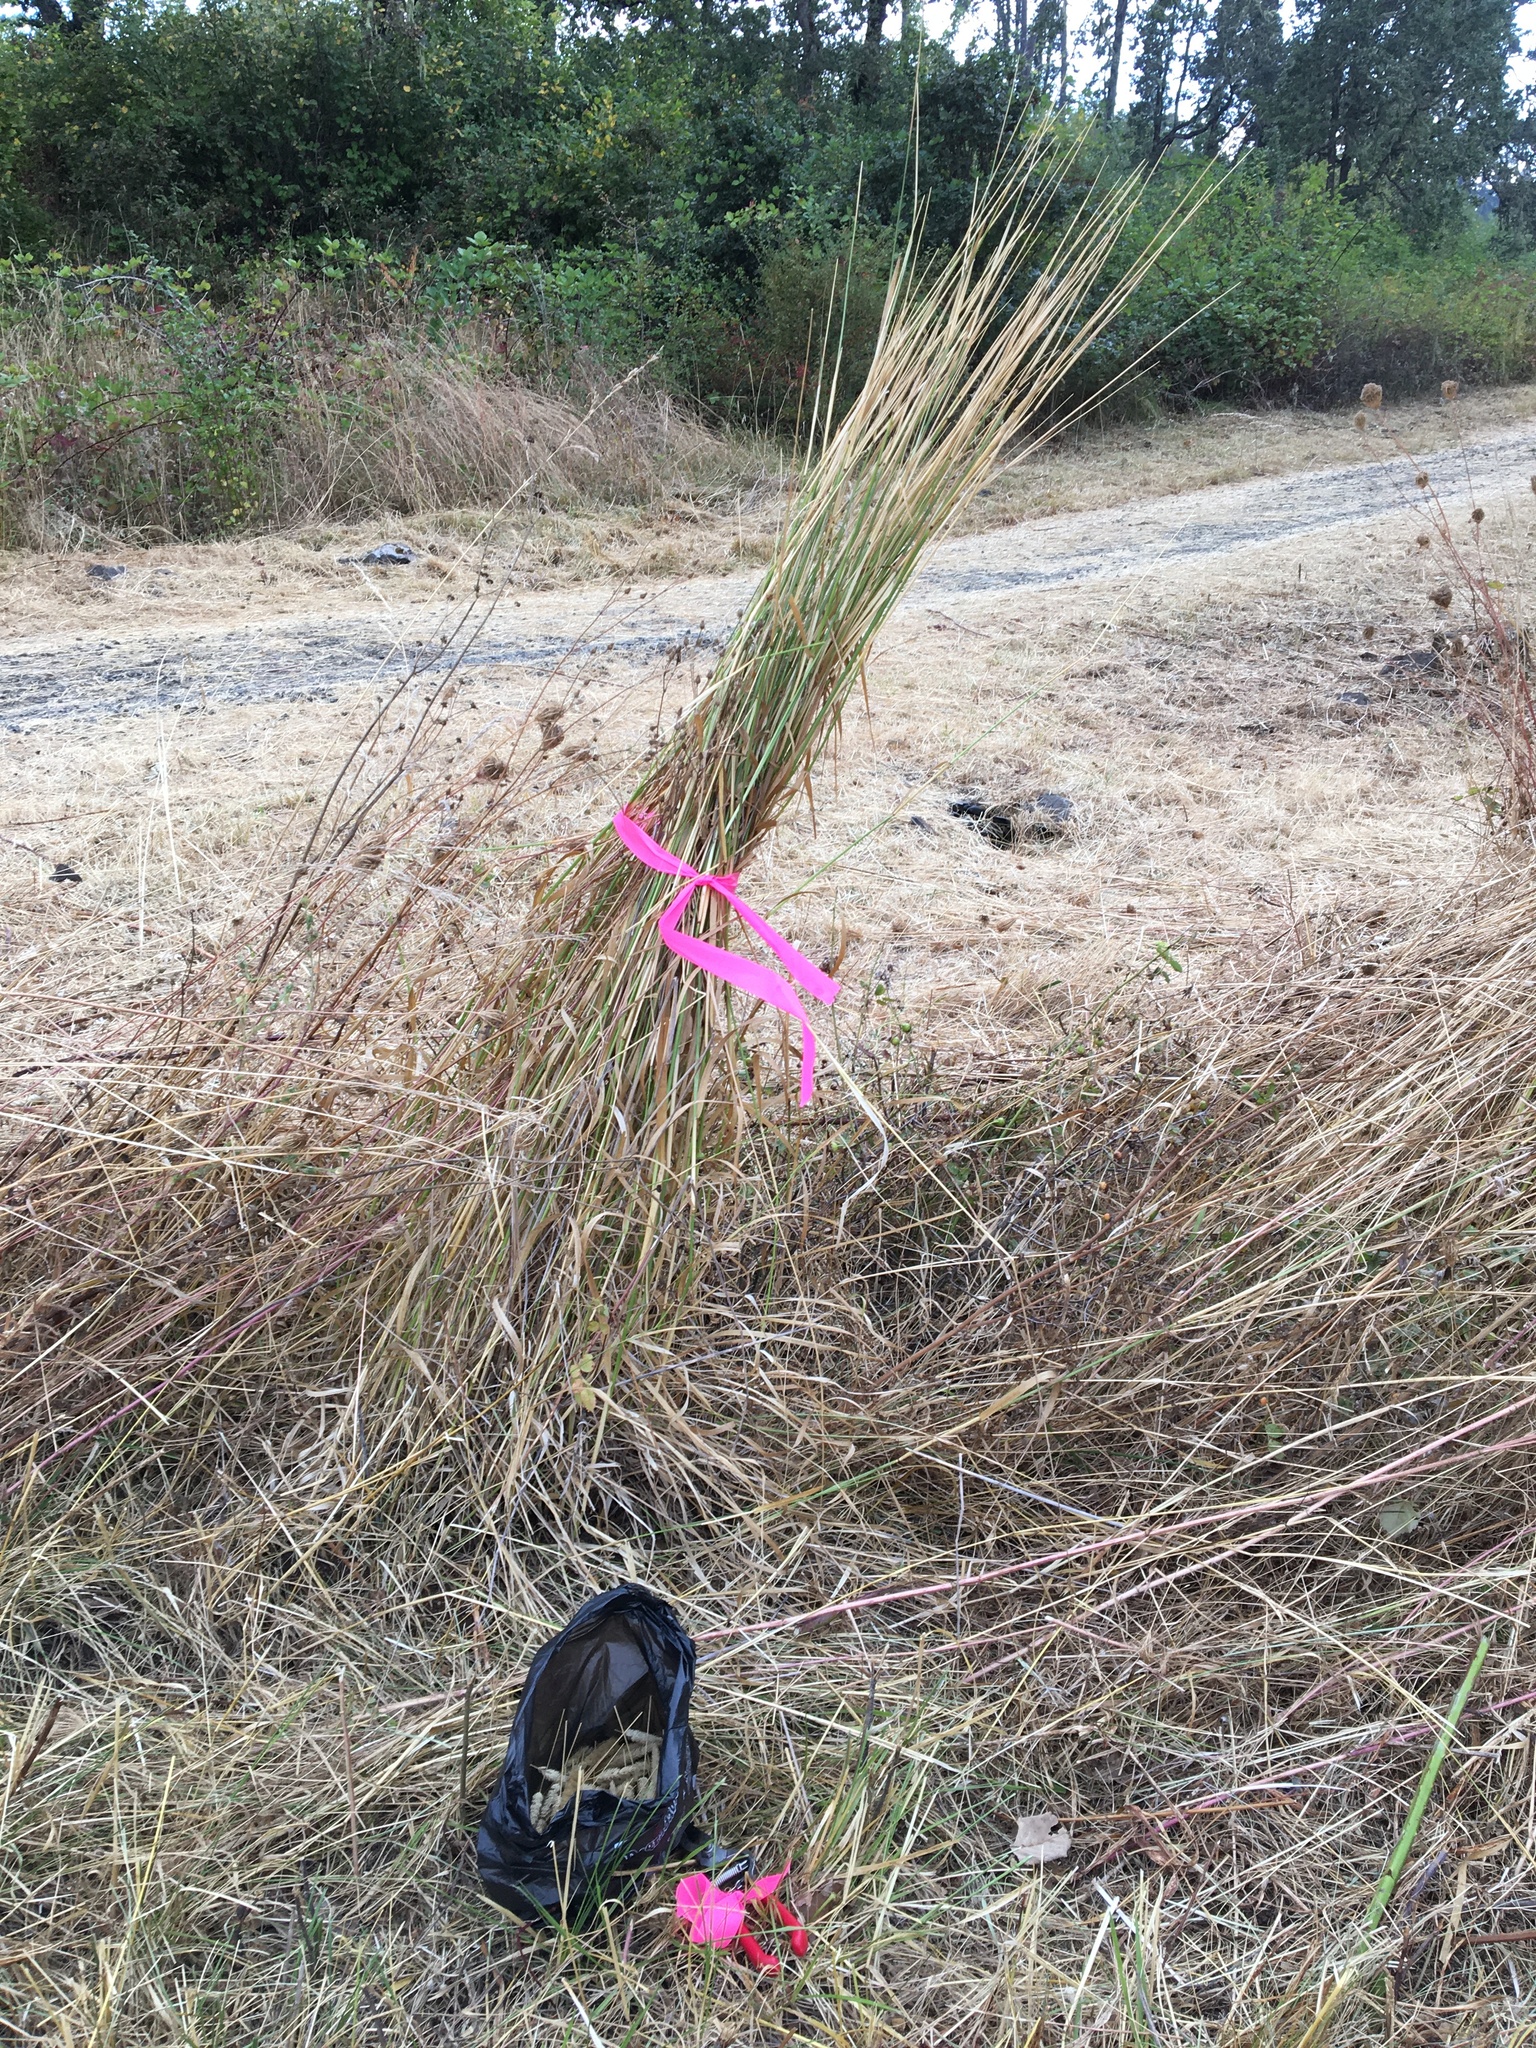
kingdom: Plantae
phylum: Tracheophyta
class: Liliopsida
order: Poales
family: Poaceae
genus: Phalaris
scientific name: Phalaris aquatica
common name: Bulbous canary-grass
